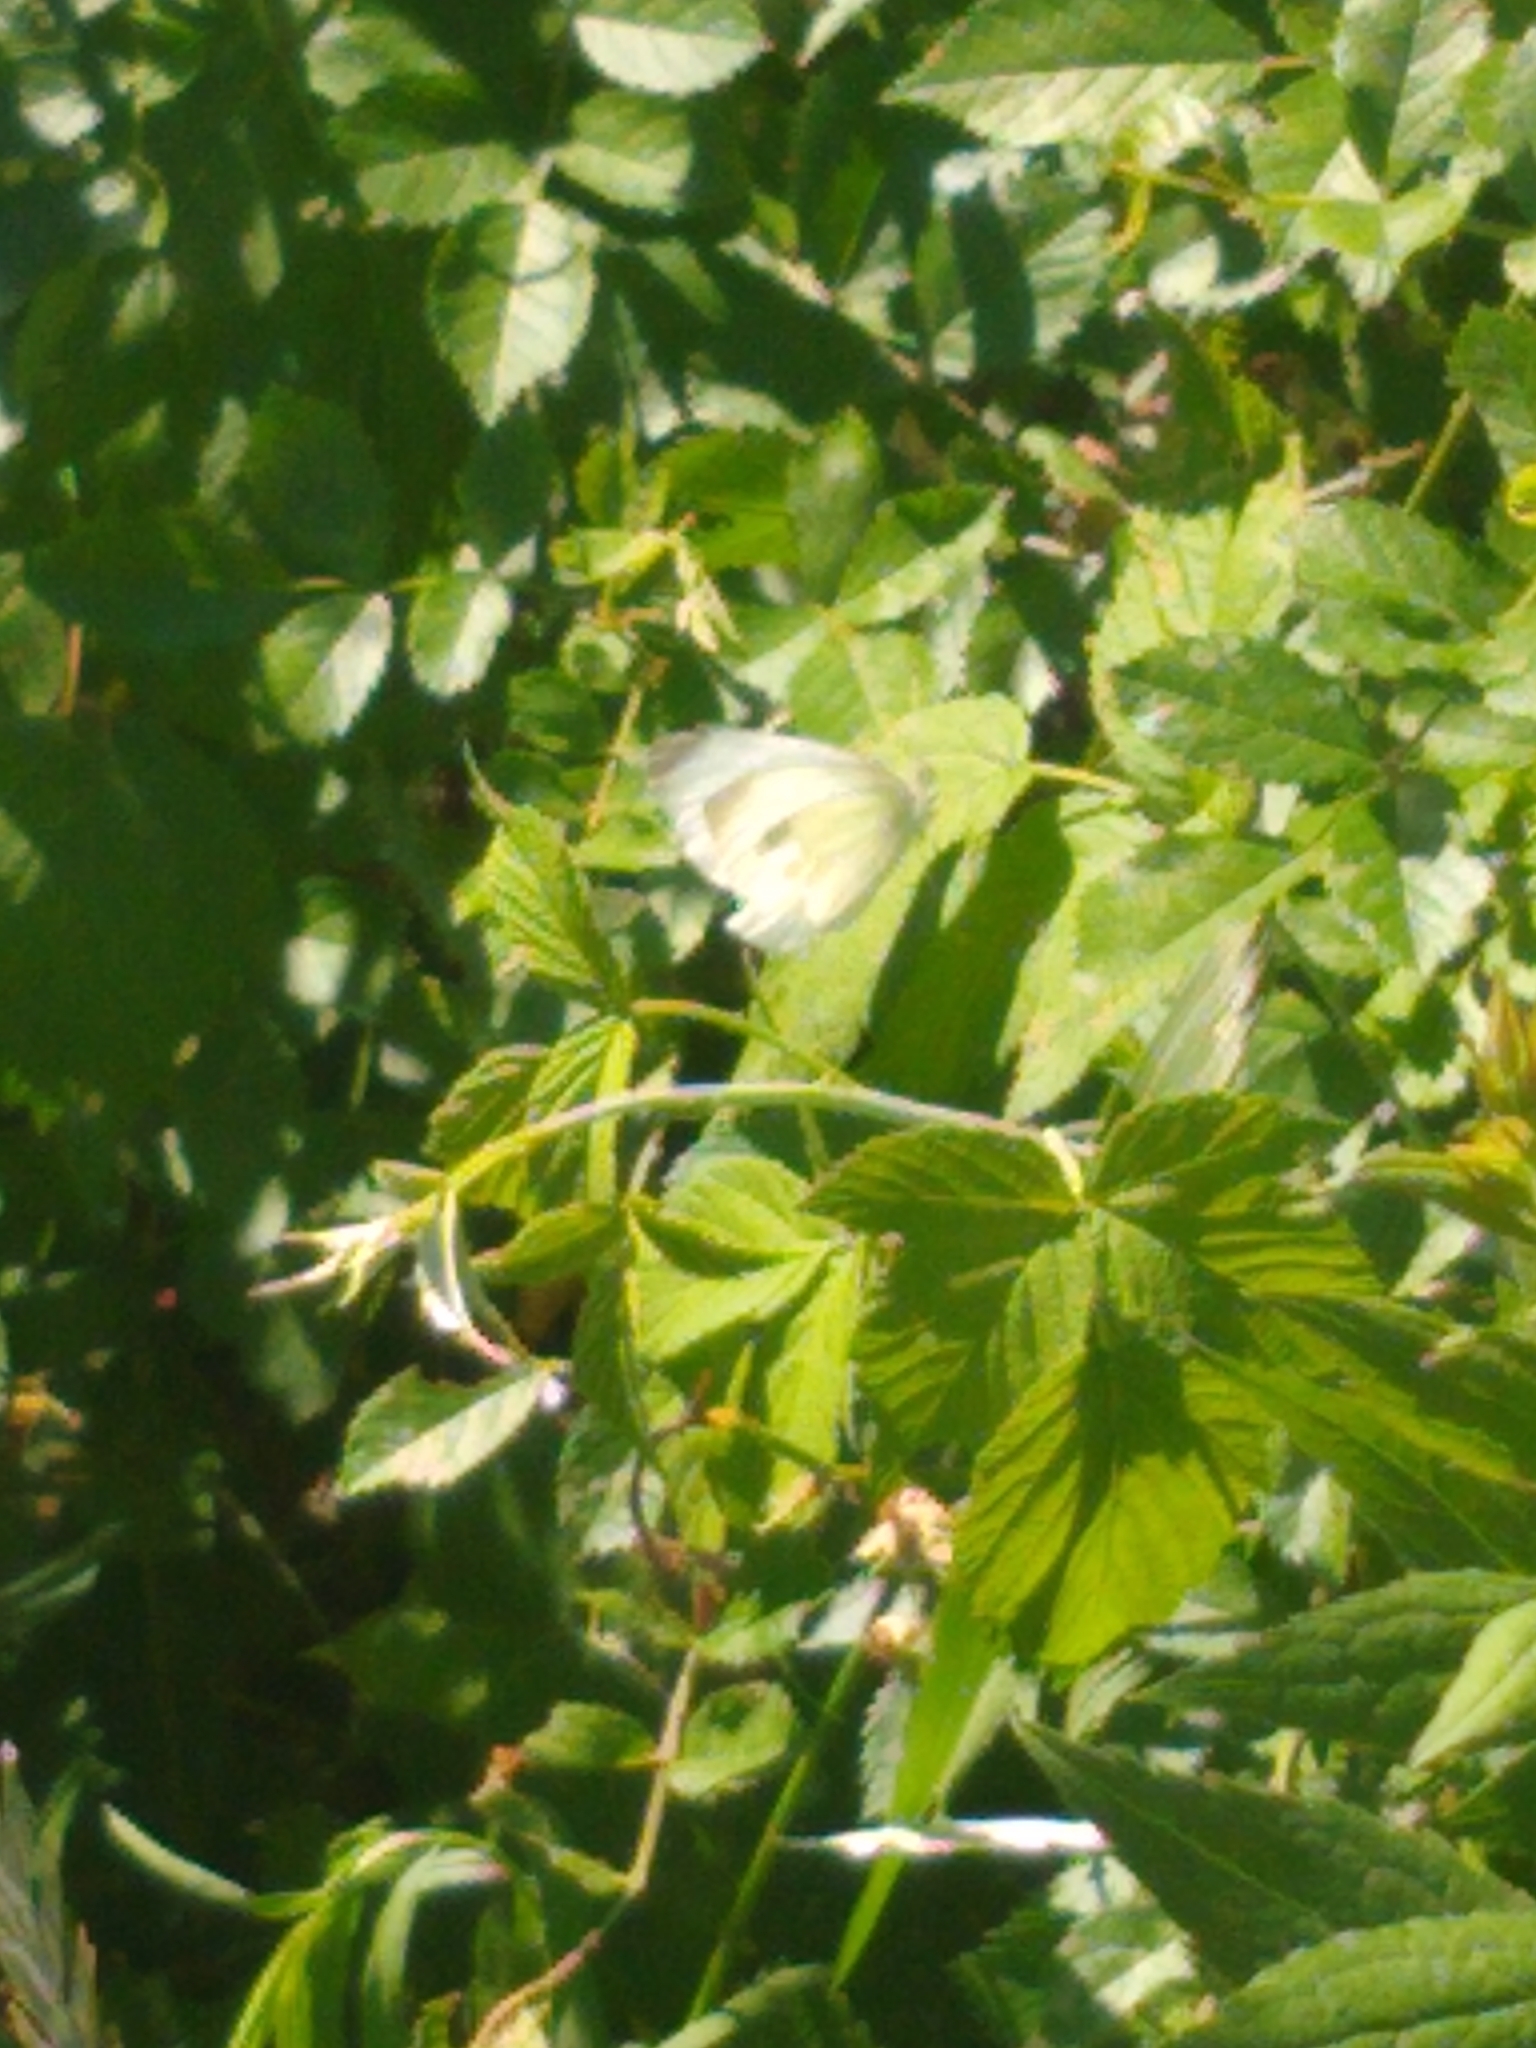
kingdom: Animalia
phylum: Arthropoda
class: Insecta
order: Lepidoptera
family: Pieridae
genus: Pieris
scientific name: Pieris rapae
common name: Small white
